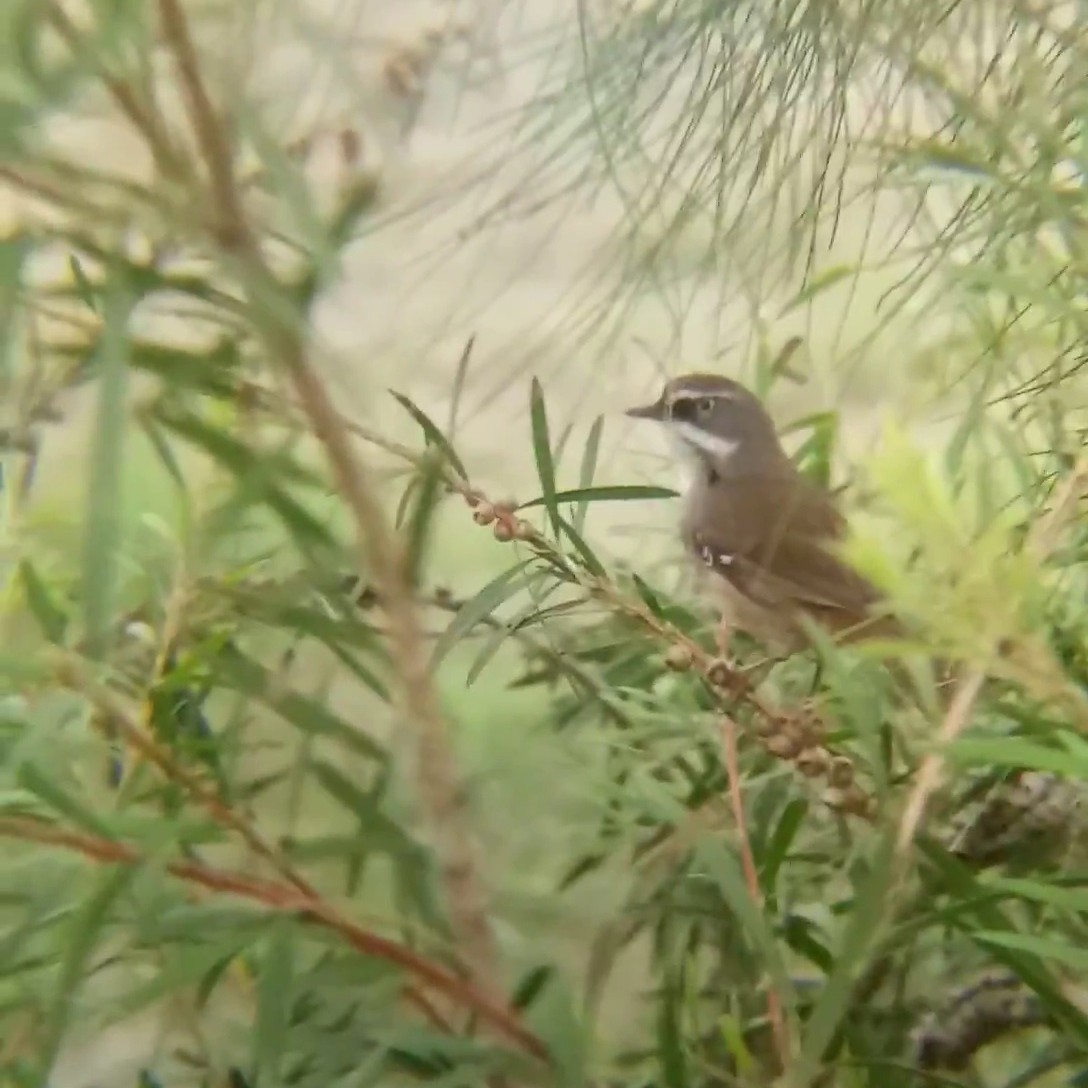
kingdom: Animalia
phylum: Chordata
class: Aves
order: Passeriformes
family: Acanthizidae
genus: Sericornis
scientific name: Sericornis frontalis
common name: White-browed scrubwren
